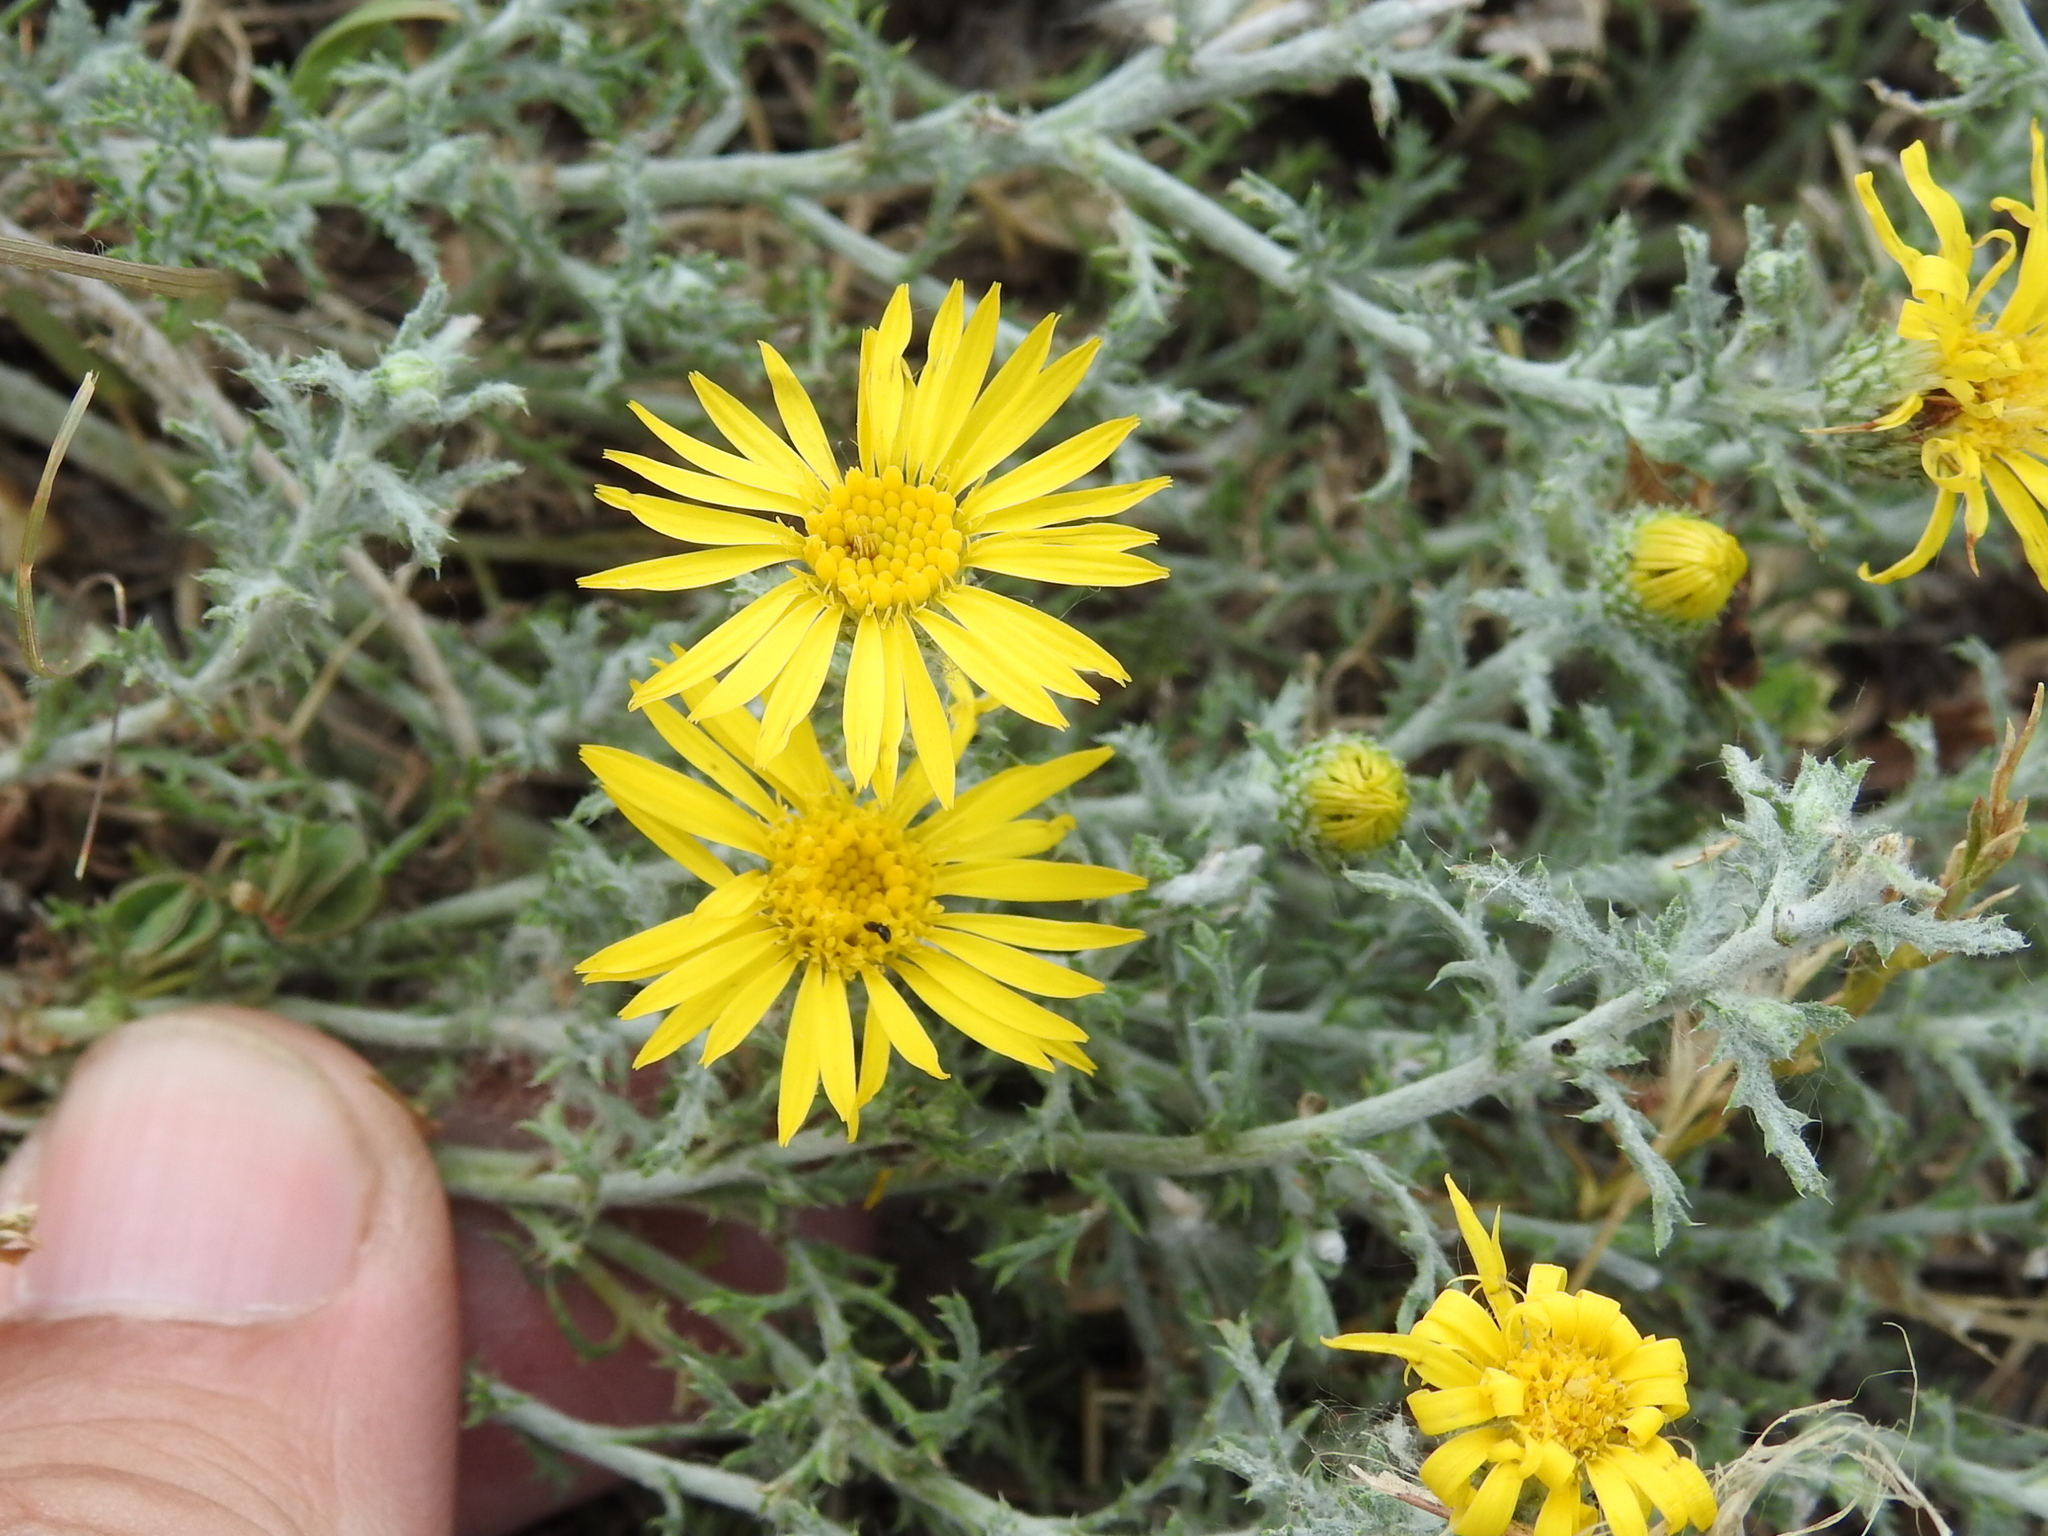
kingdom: Plantae
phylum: Tracheophyta
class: Magnoliopsida
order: Asterales
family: Asteraceae
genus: Xanthisma
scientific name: Xanthisma spinulosum
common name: Spiny goldenweed
